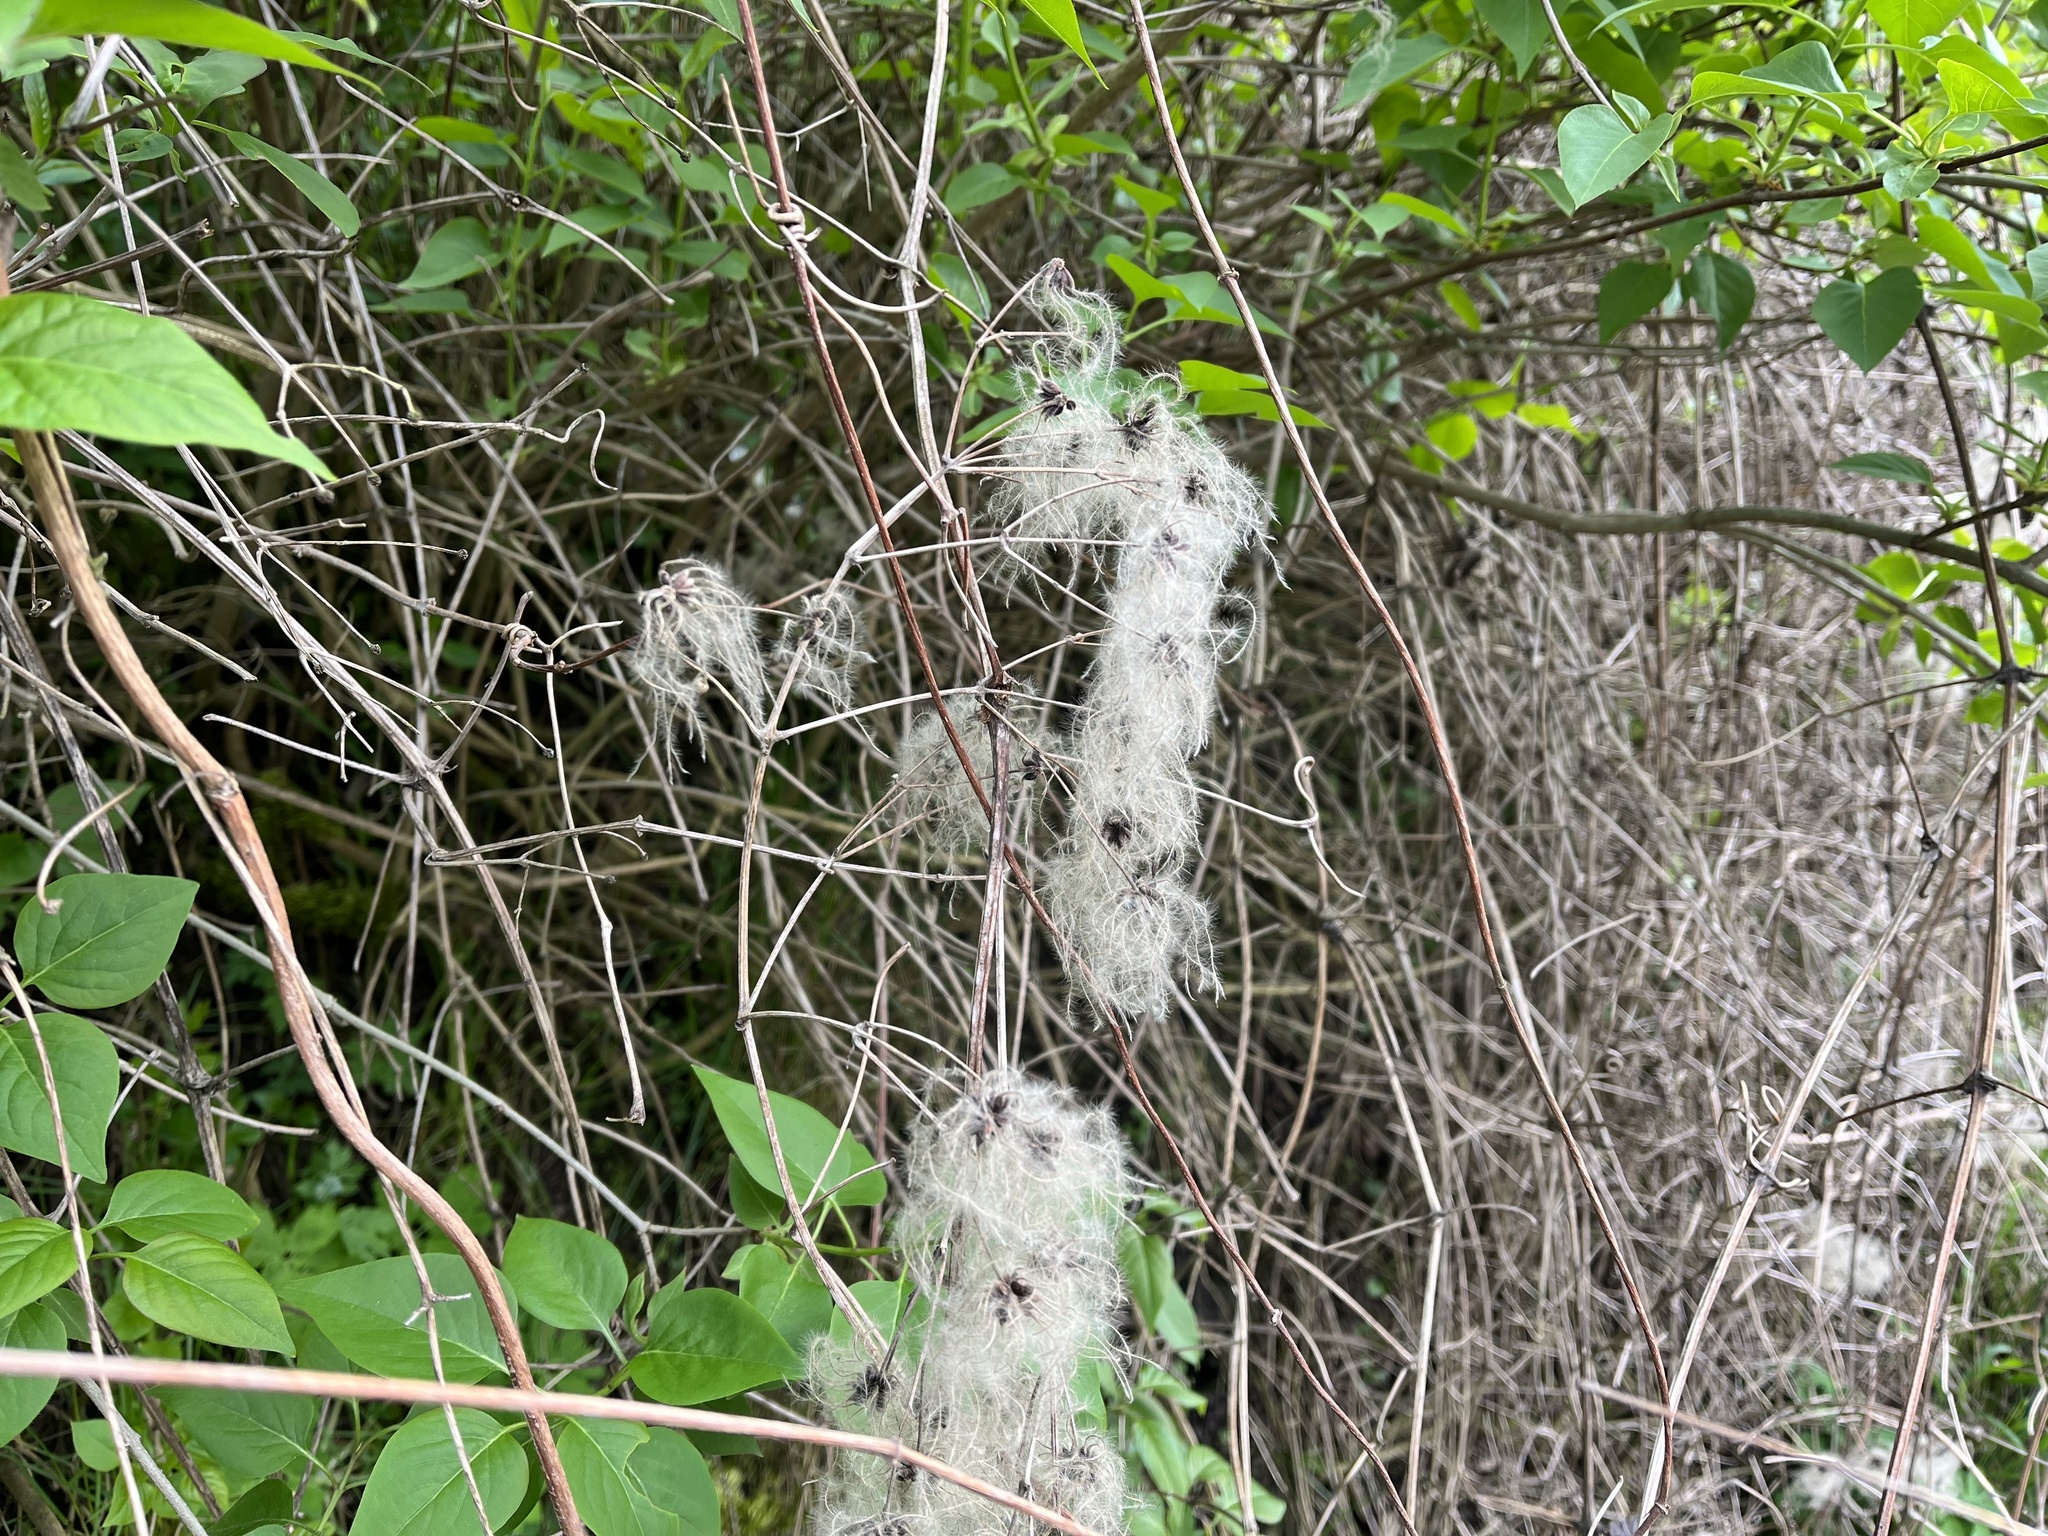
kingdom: Plantae
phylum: Tracheophyta
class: Magnoliopsida
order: Ranunculales
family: Ranunculaceae
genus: Clematis
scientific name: Clematis vitalba
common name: Evergreen clematis
